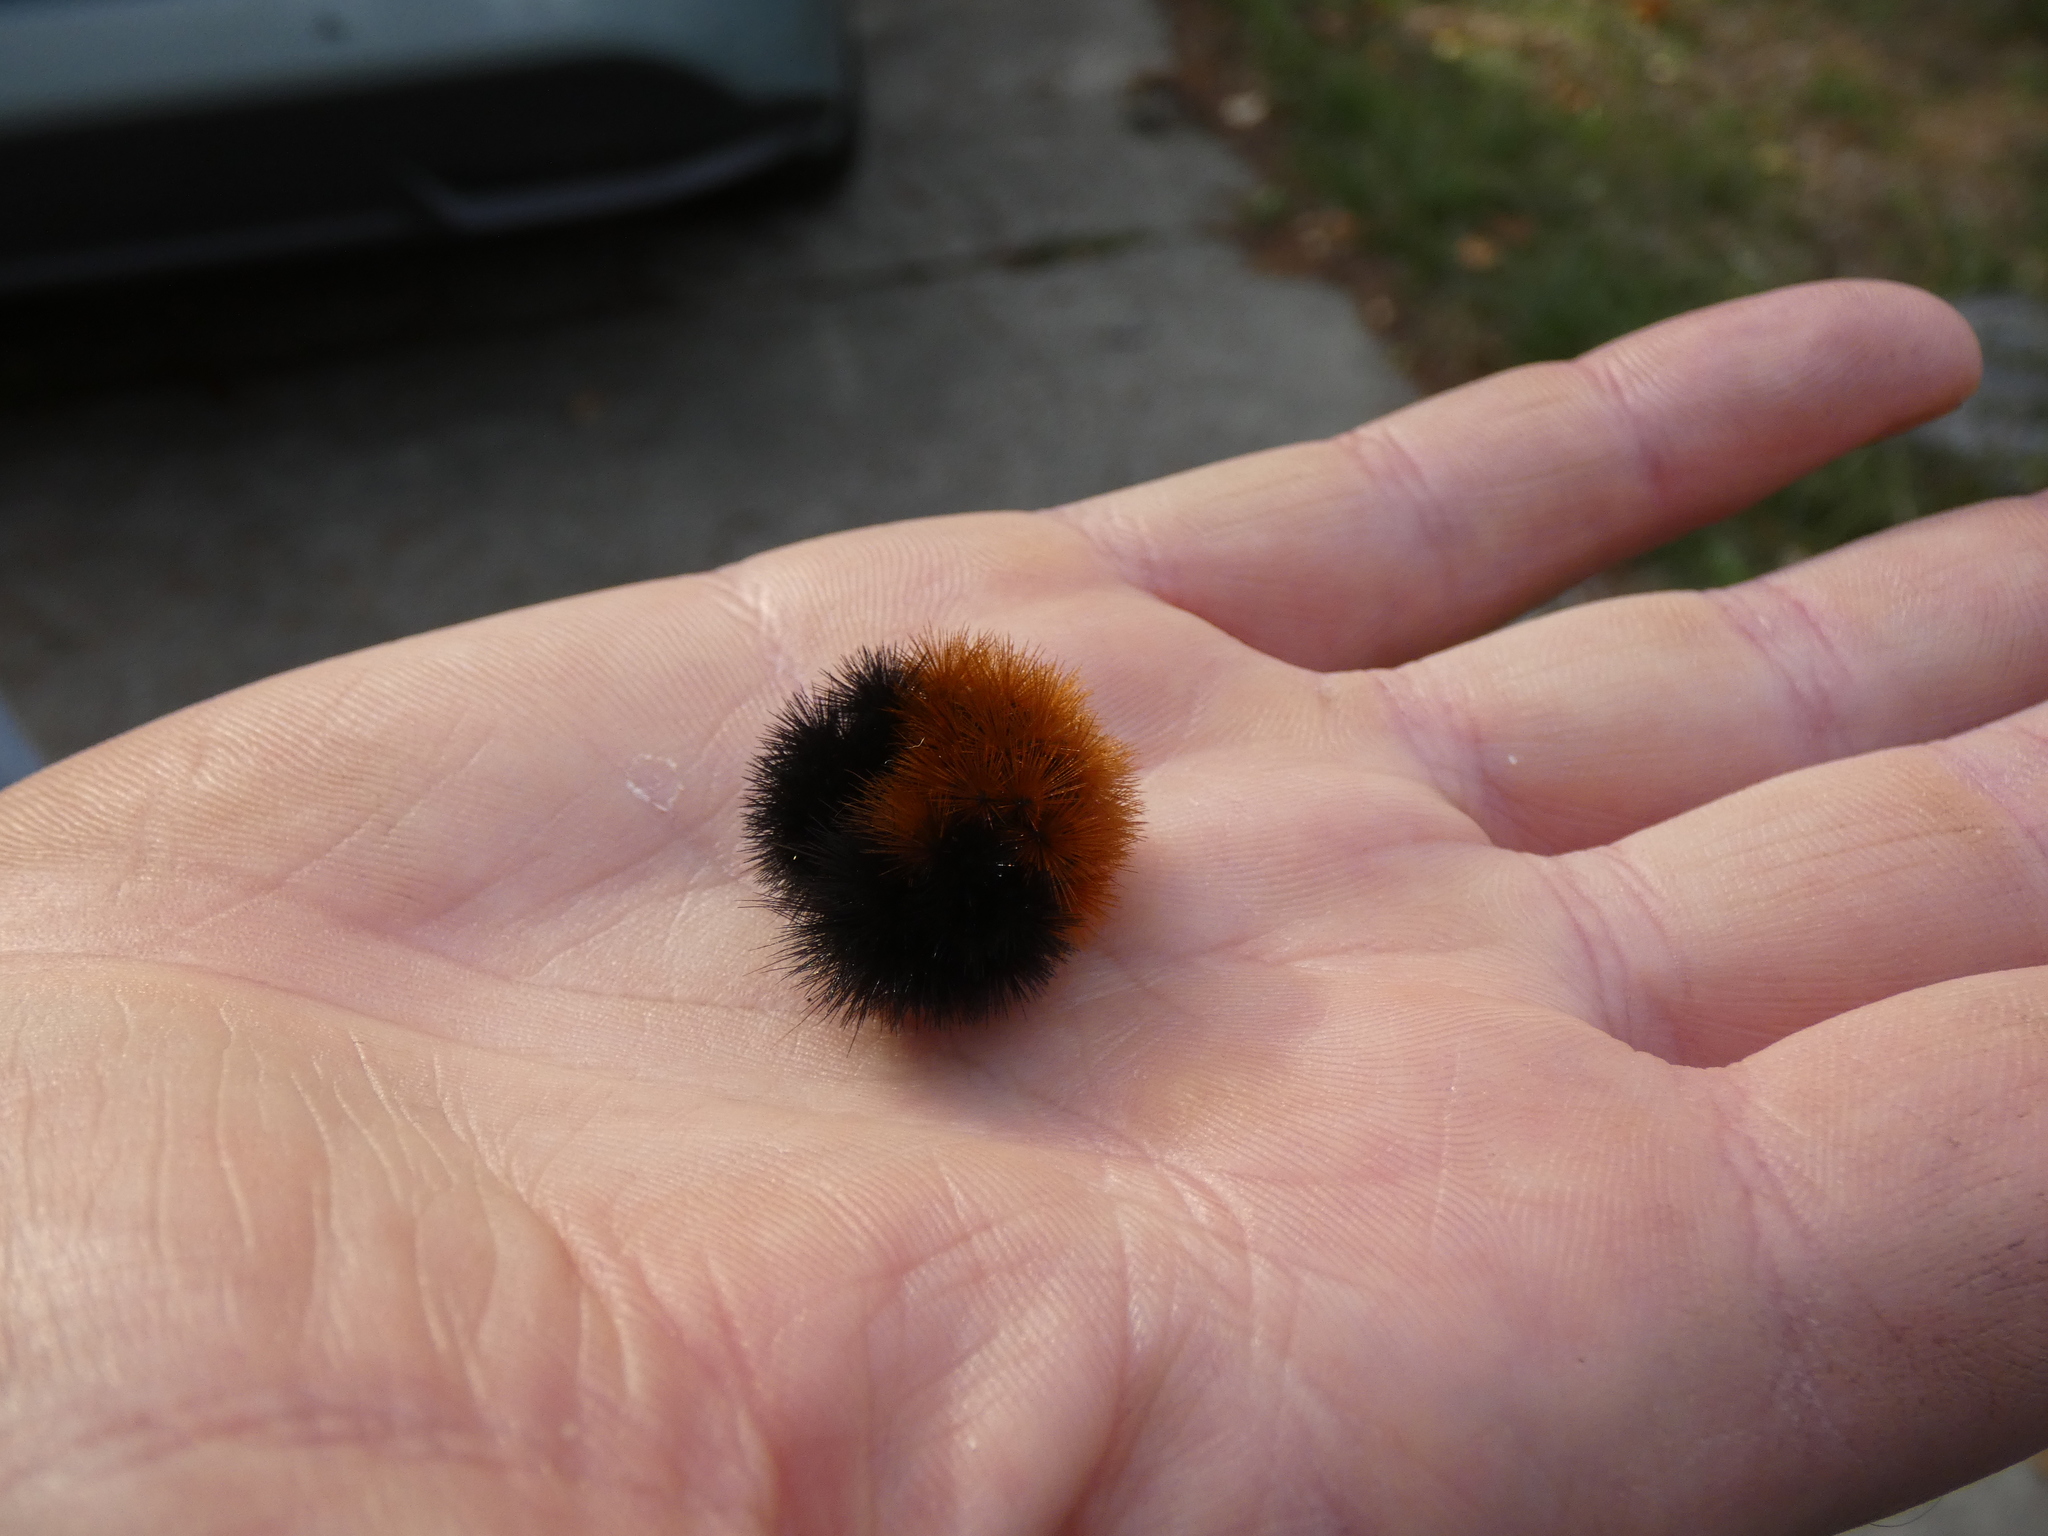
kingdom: Animalia
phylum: Arthropoda
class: Insecta
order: Lepidoptera
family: Erebidae
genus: Pyrrharctia
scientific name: Pyrrharctia isabella
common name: Isabella tiger moth
